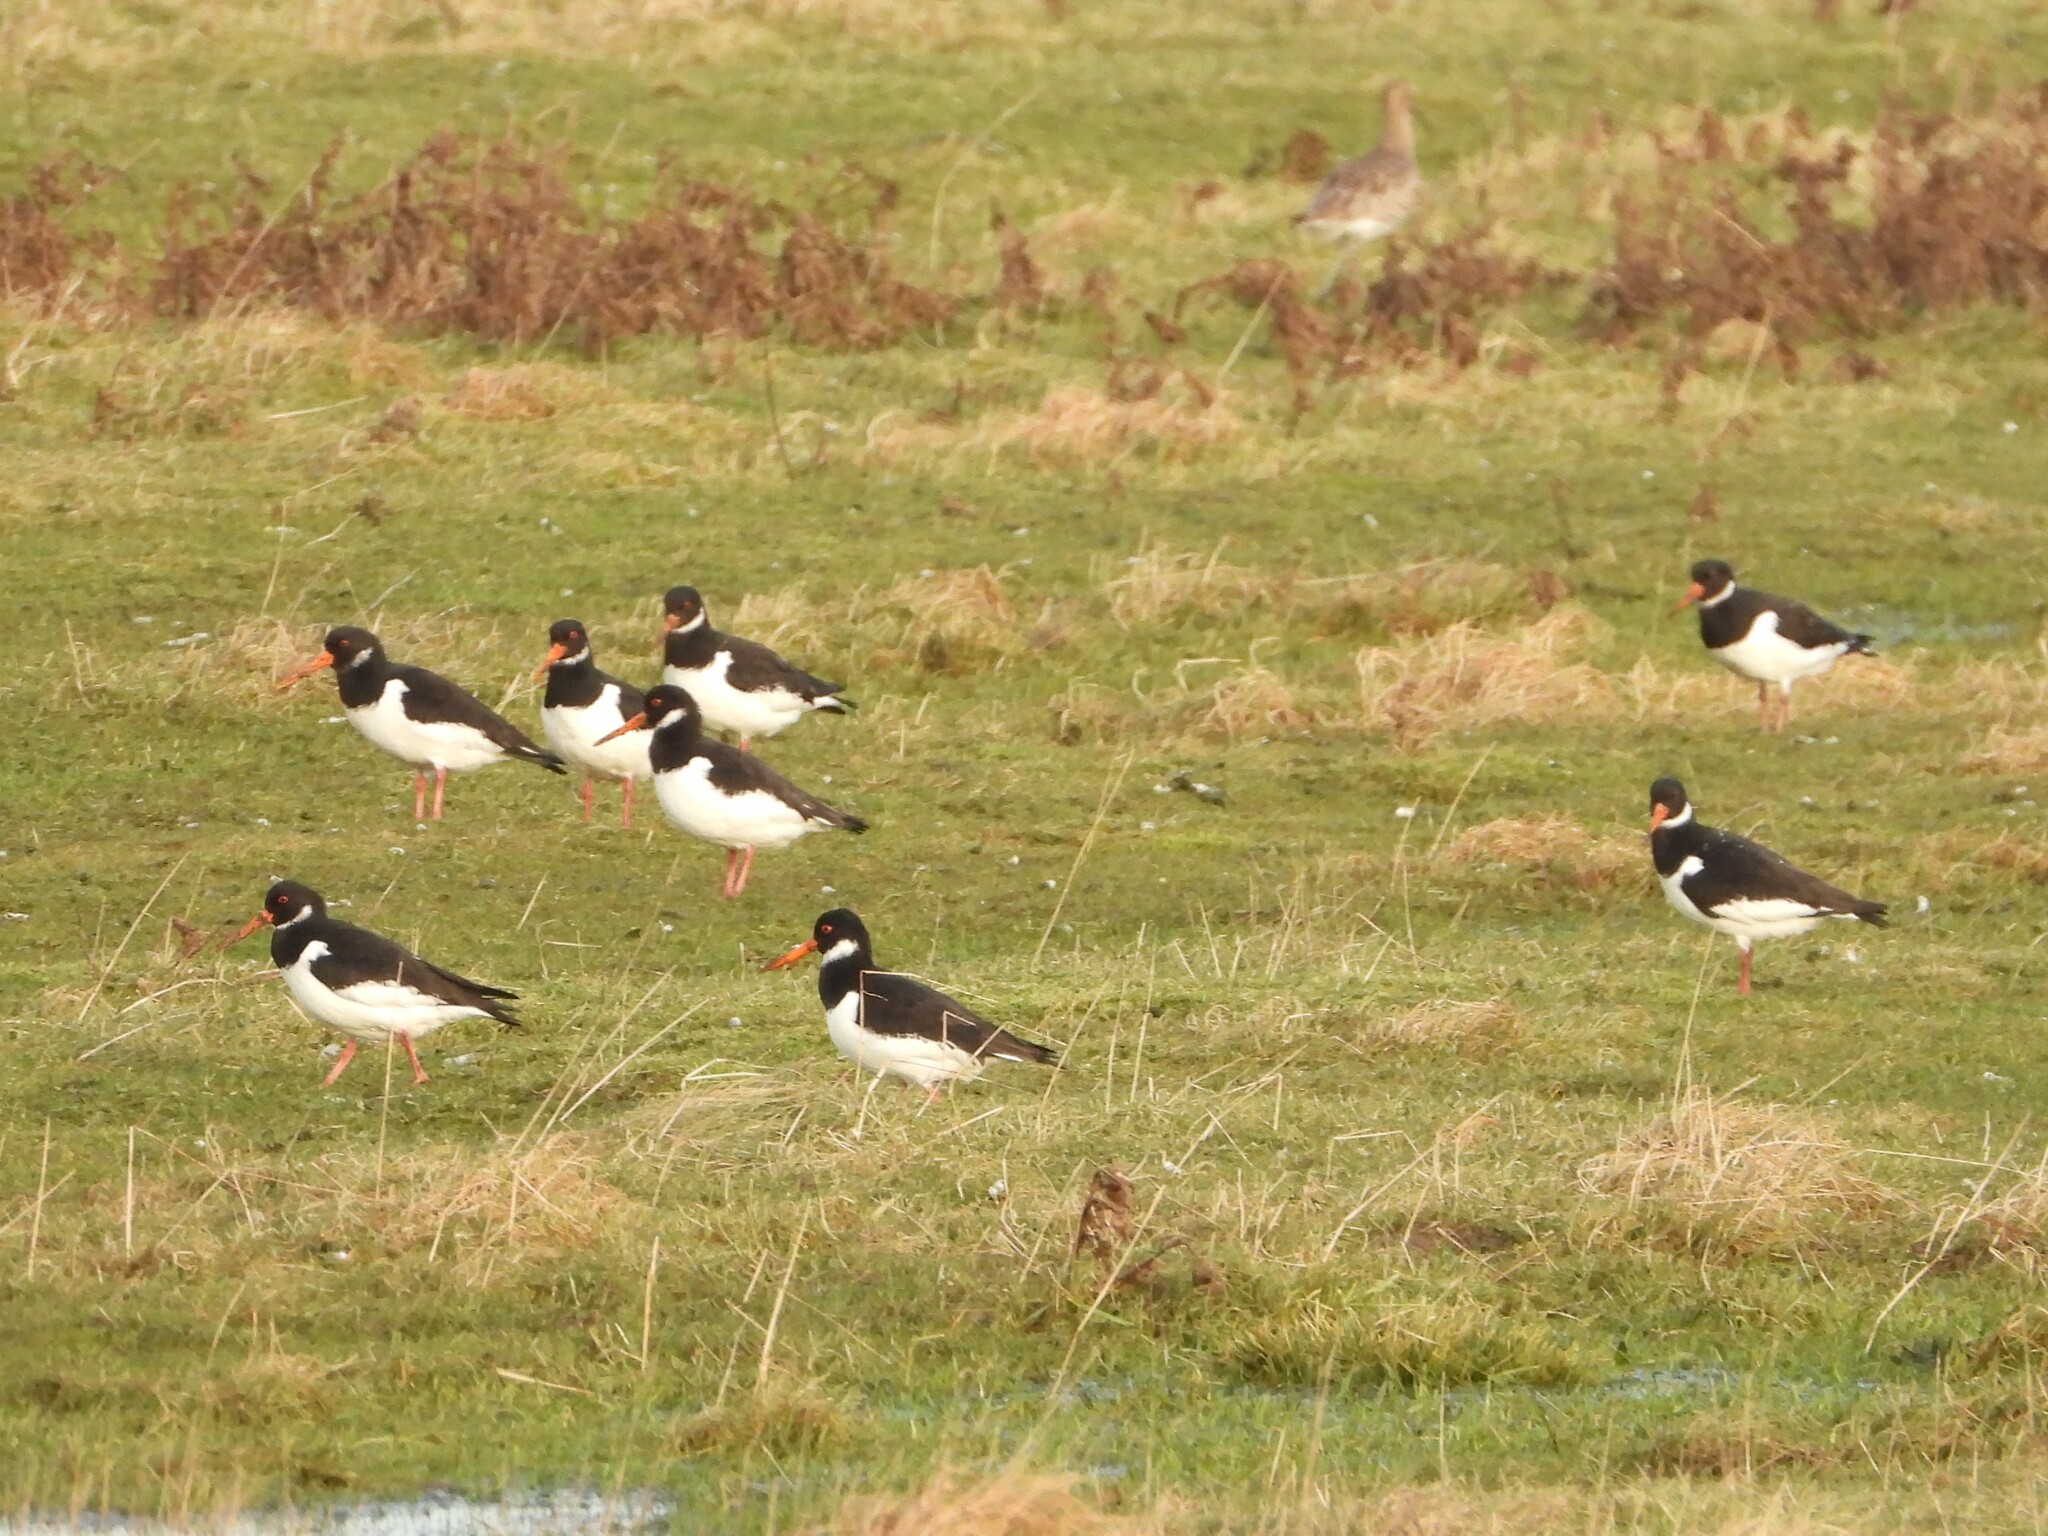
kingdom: Animalia
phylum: Chordata
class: Aves
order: Charadriiformes
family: Haematopodidae
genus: Haematopus
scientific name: Haematopus ostralegus
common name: Eurasian oystercatcher
